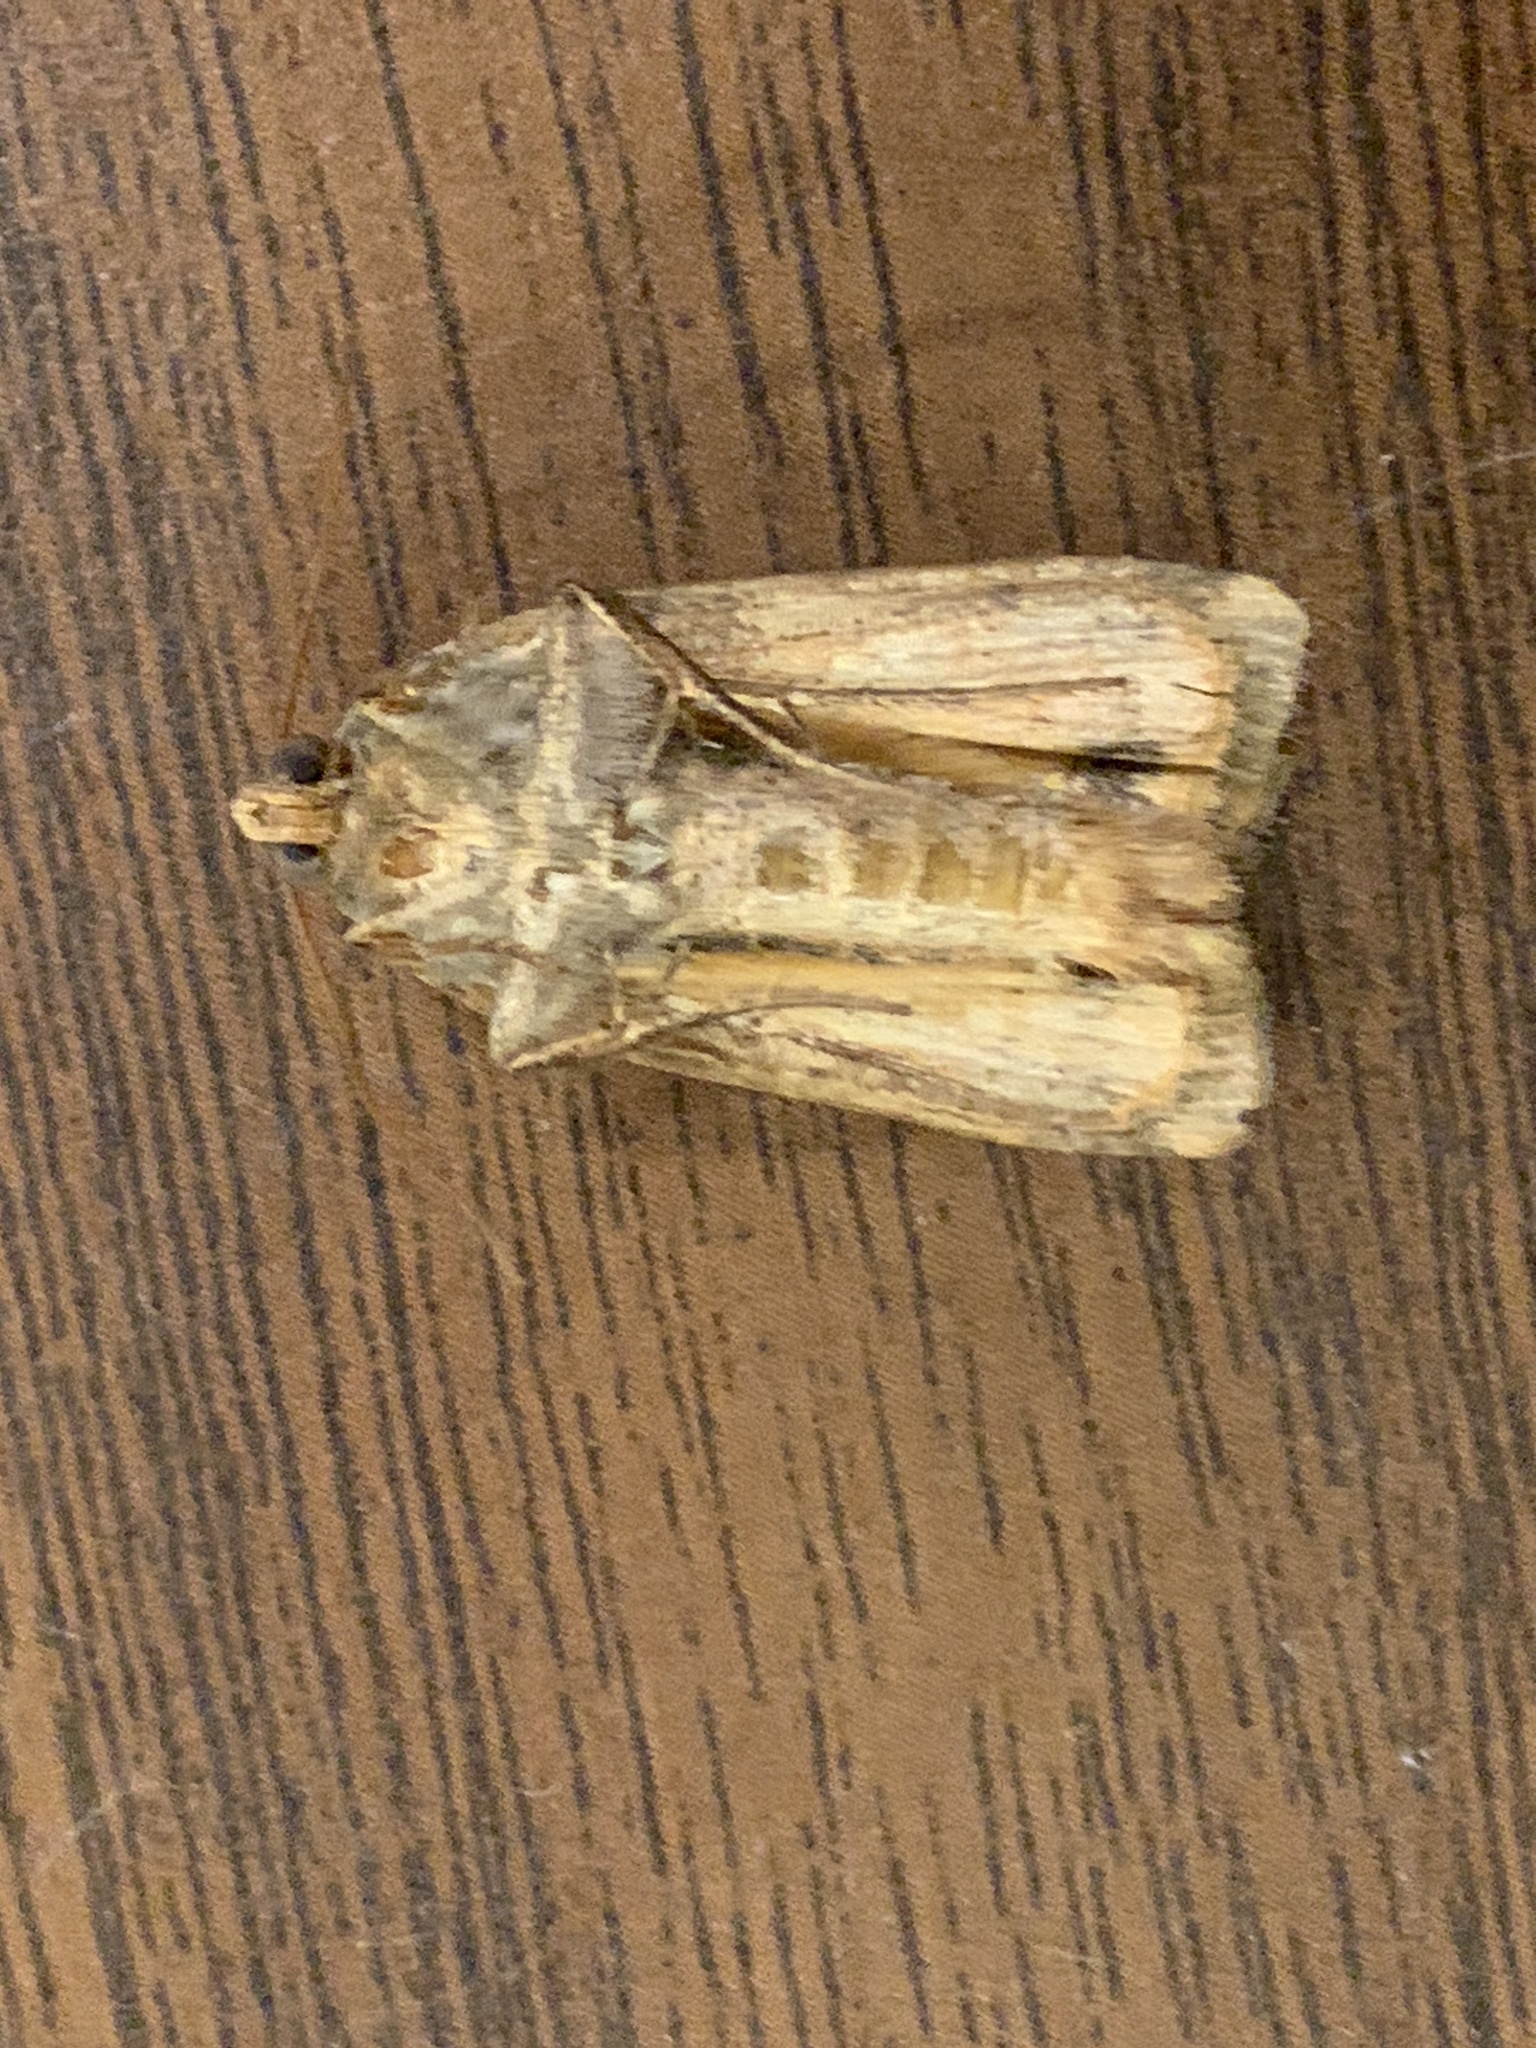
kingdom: Animalia
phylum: Arthropoda
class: Insecta
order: Lepidoptera
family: Noctuidae
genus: Noctua
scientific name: Noctua comes
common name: Lesser yellow underwing
